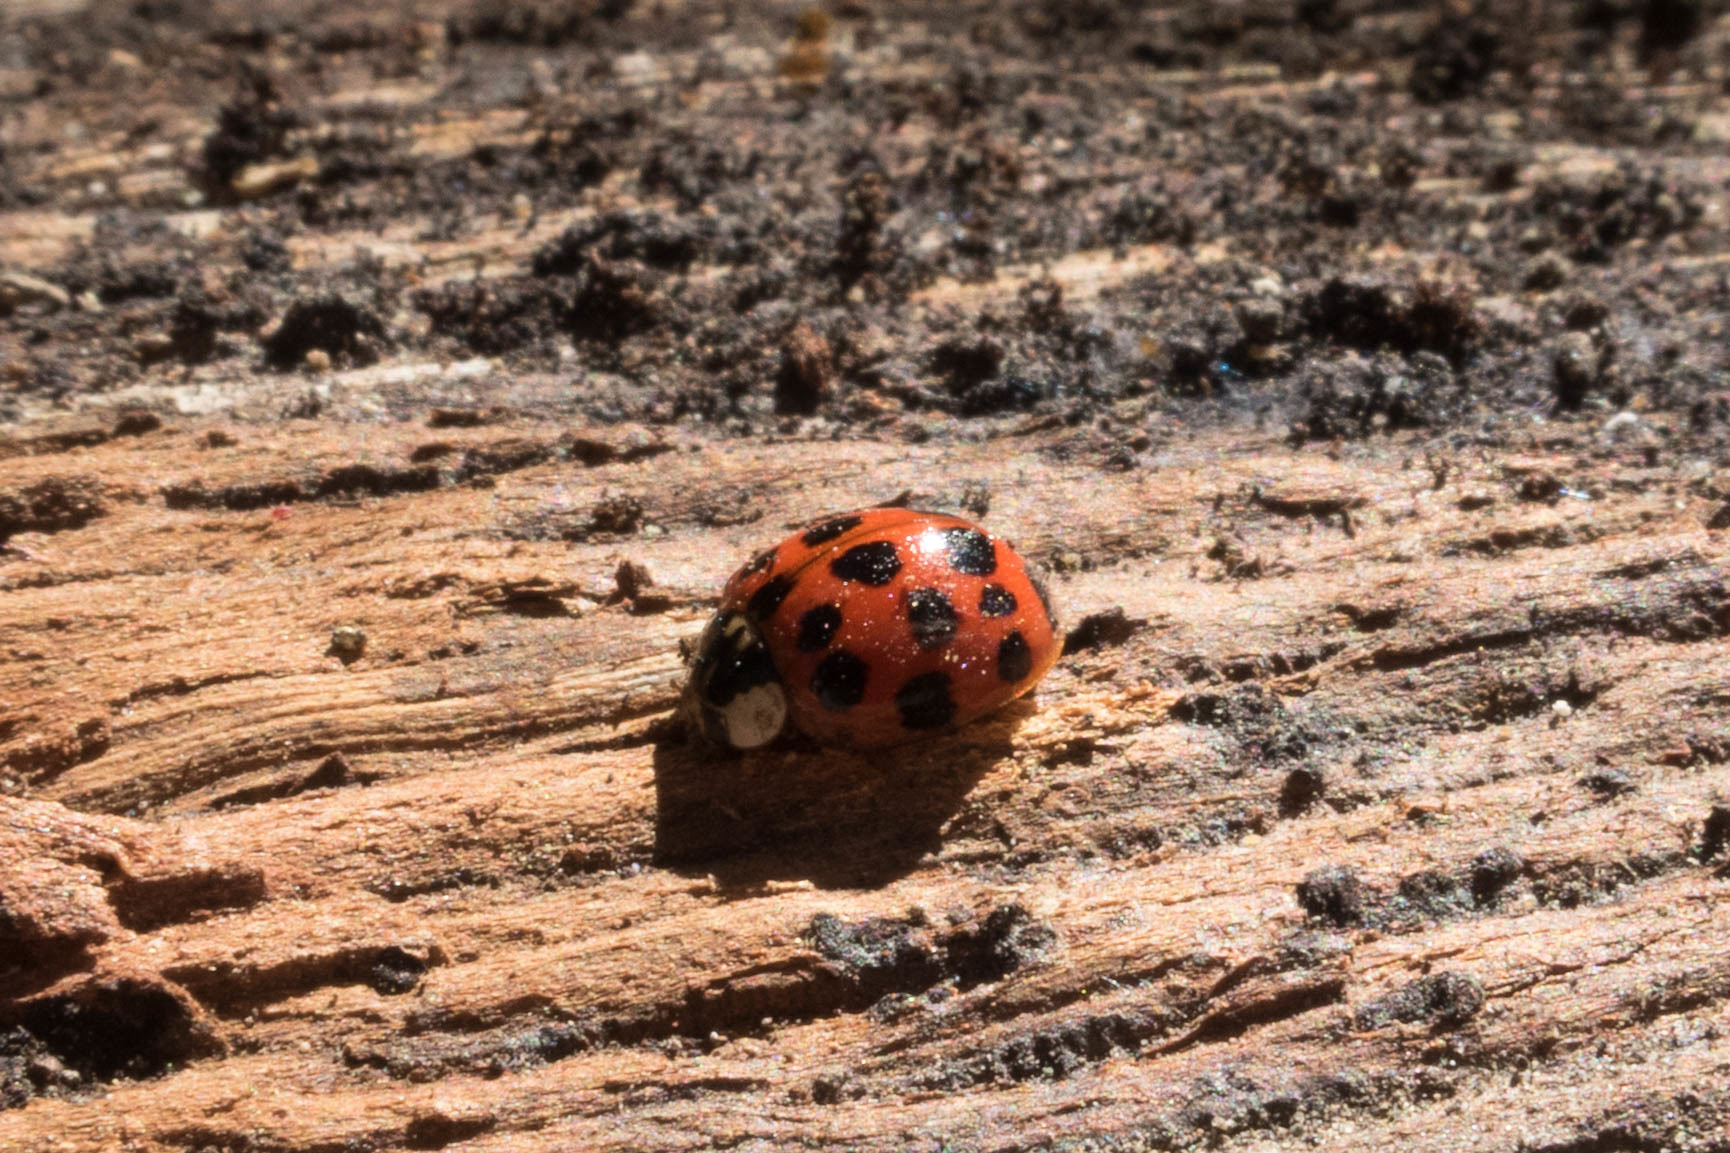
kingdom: Animalia
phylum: Arthropoda
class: Insecta
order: Coleoptera
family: Coccinellidae
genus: Harmonia
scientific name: Harmonia axyridis
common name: Harlequin ladybird
